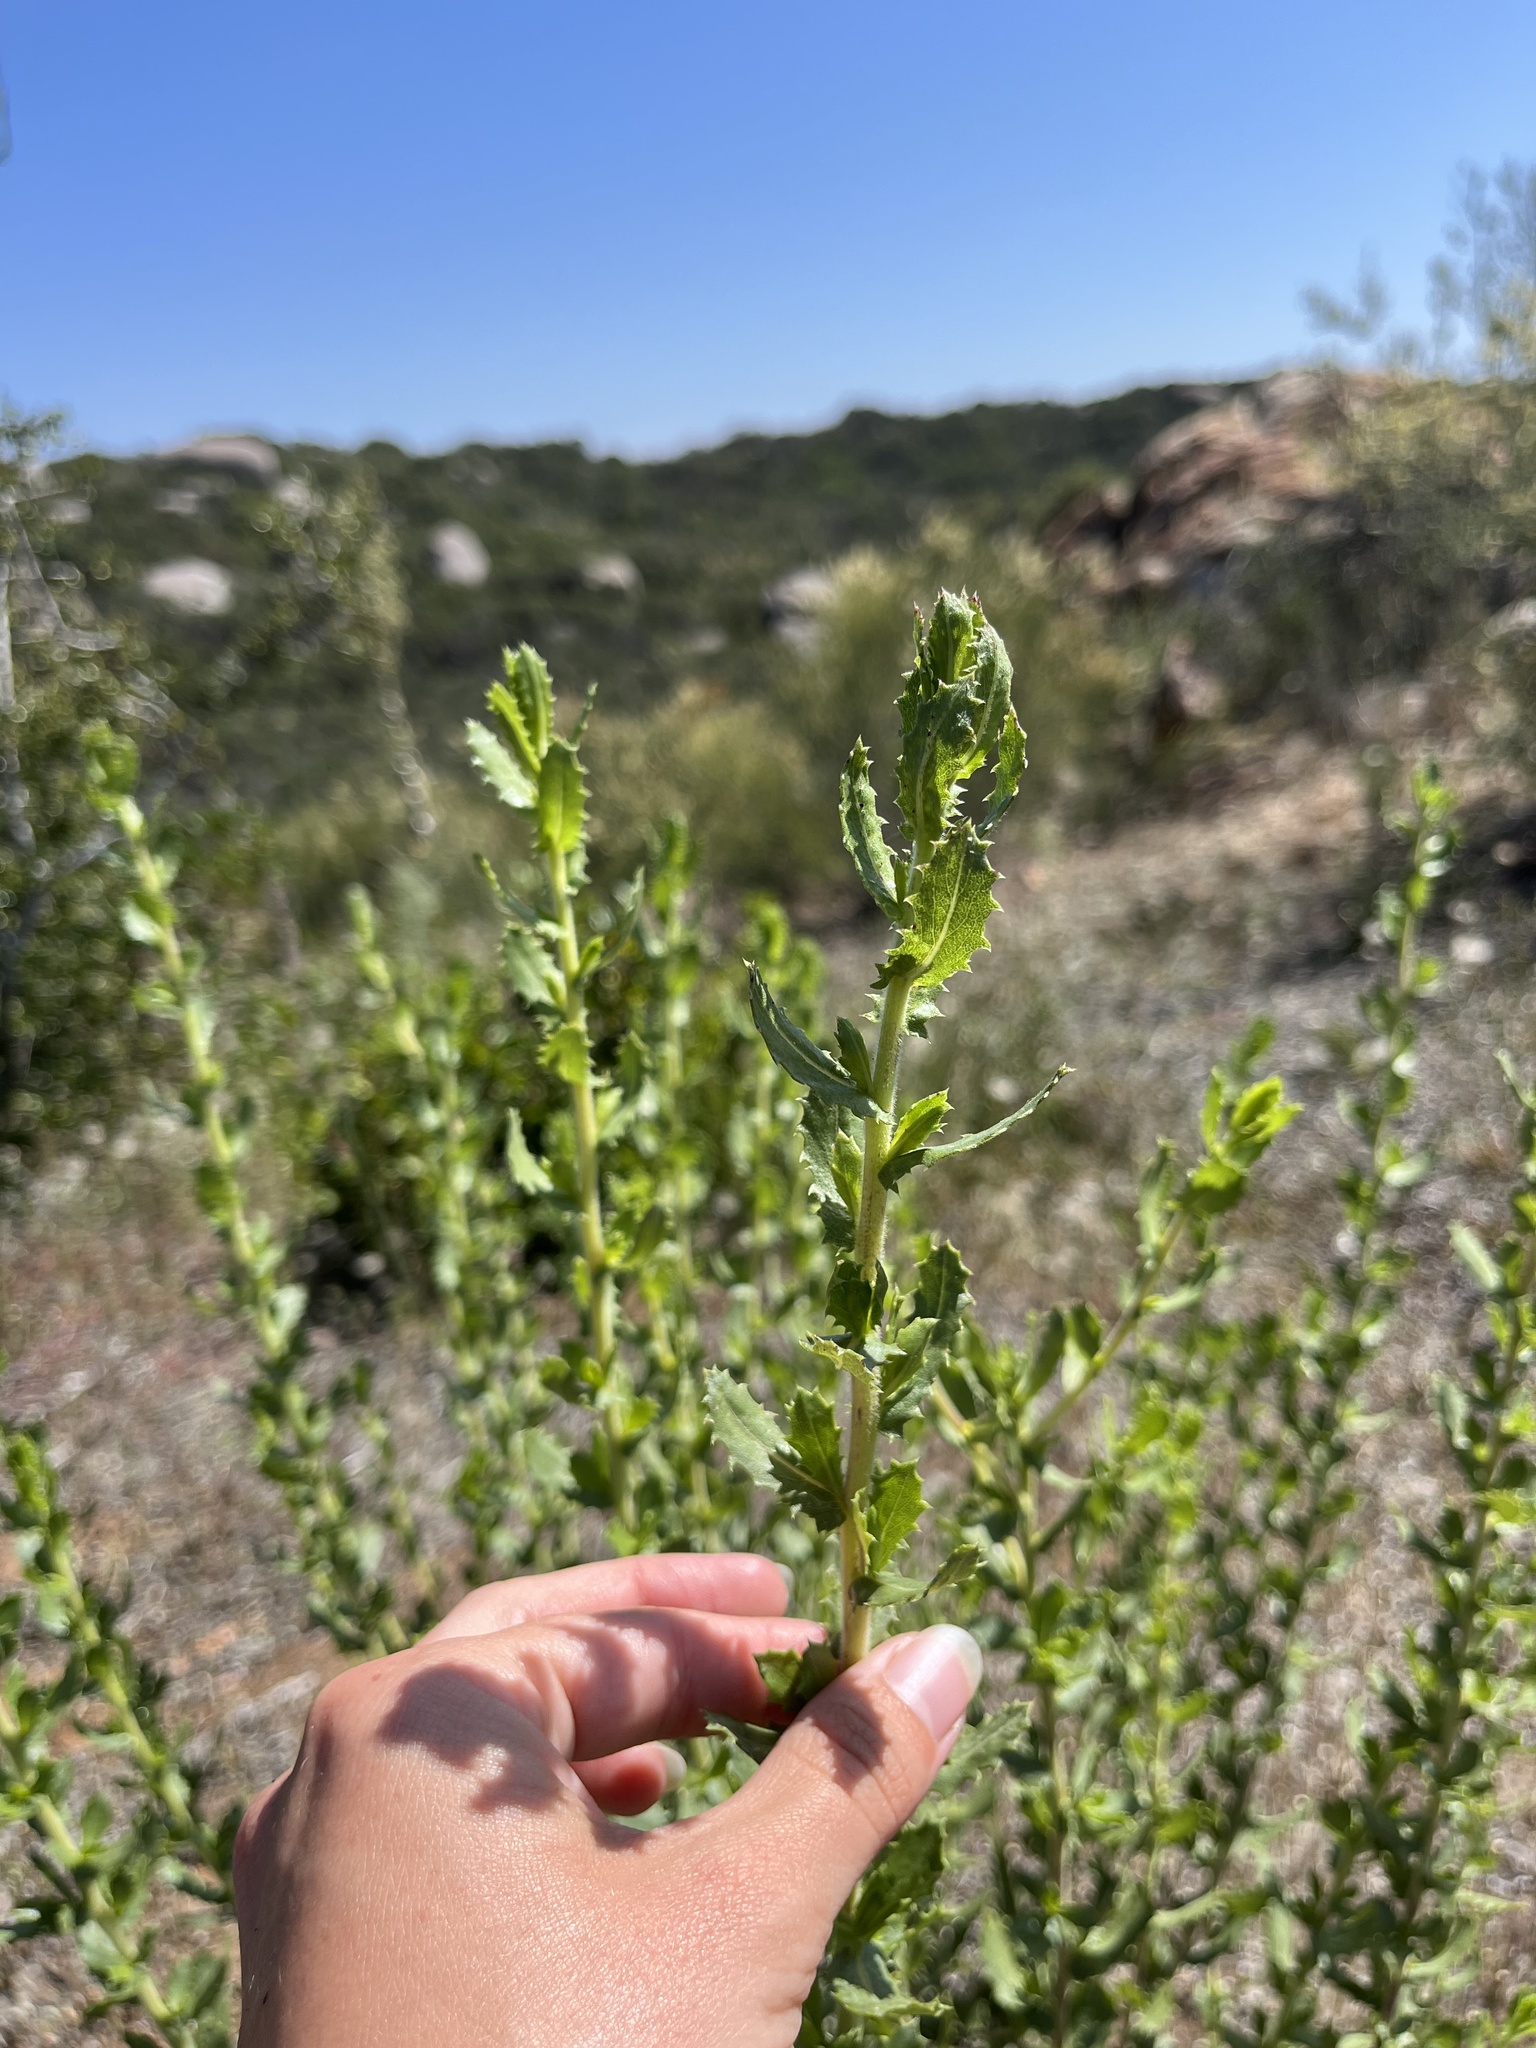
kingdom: Plantae
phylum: Tracheophyta
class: Magnoliopsida
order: Asterales
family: Asteraceae
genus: Hazardia
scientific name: Hazardia squarrosa
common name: Saw-tooth goldenbush
